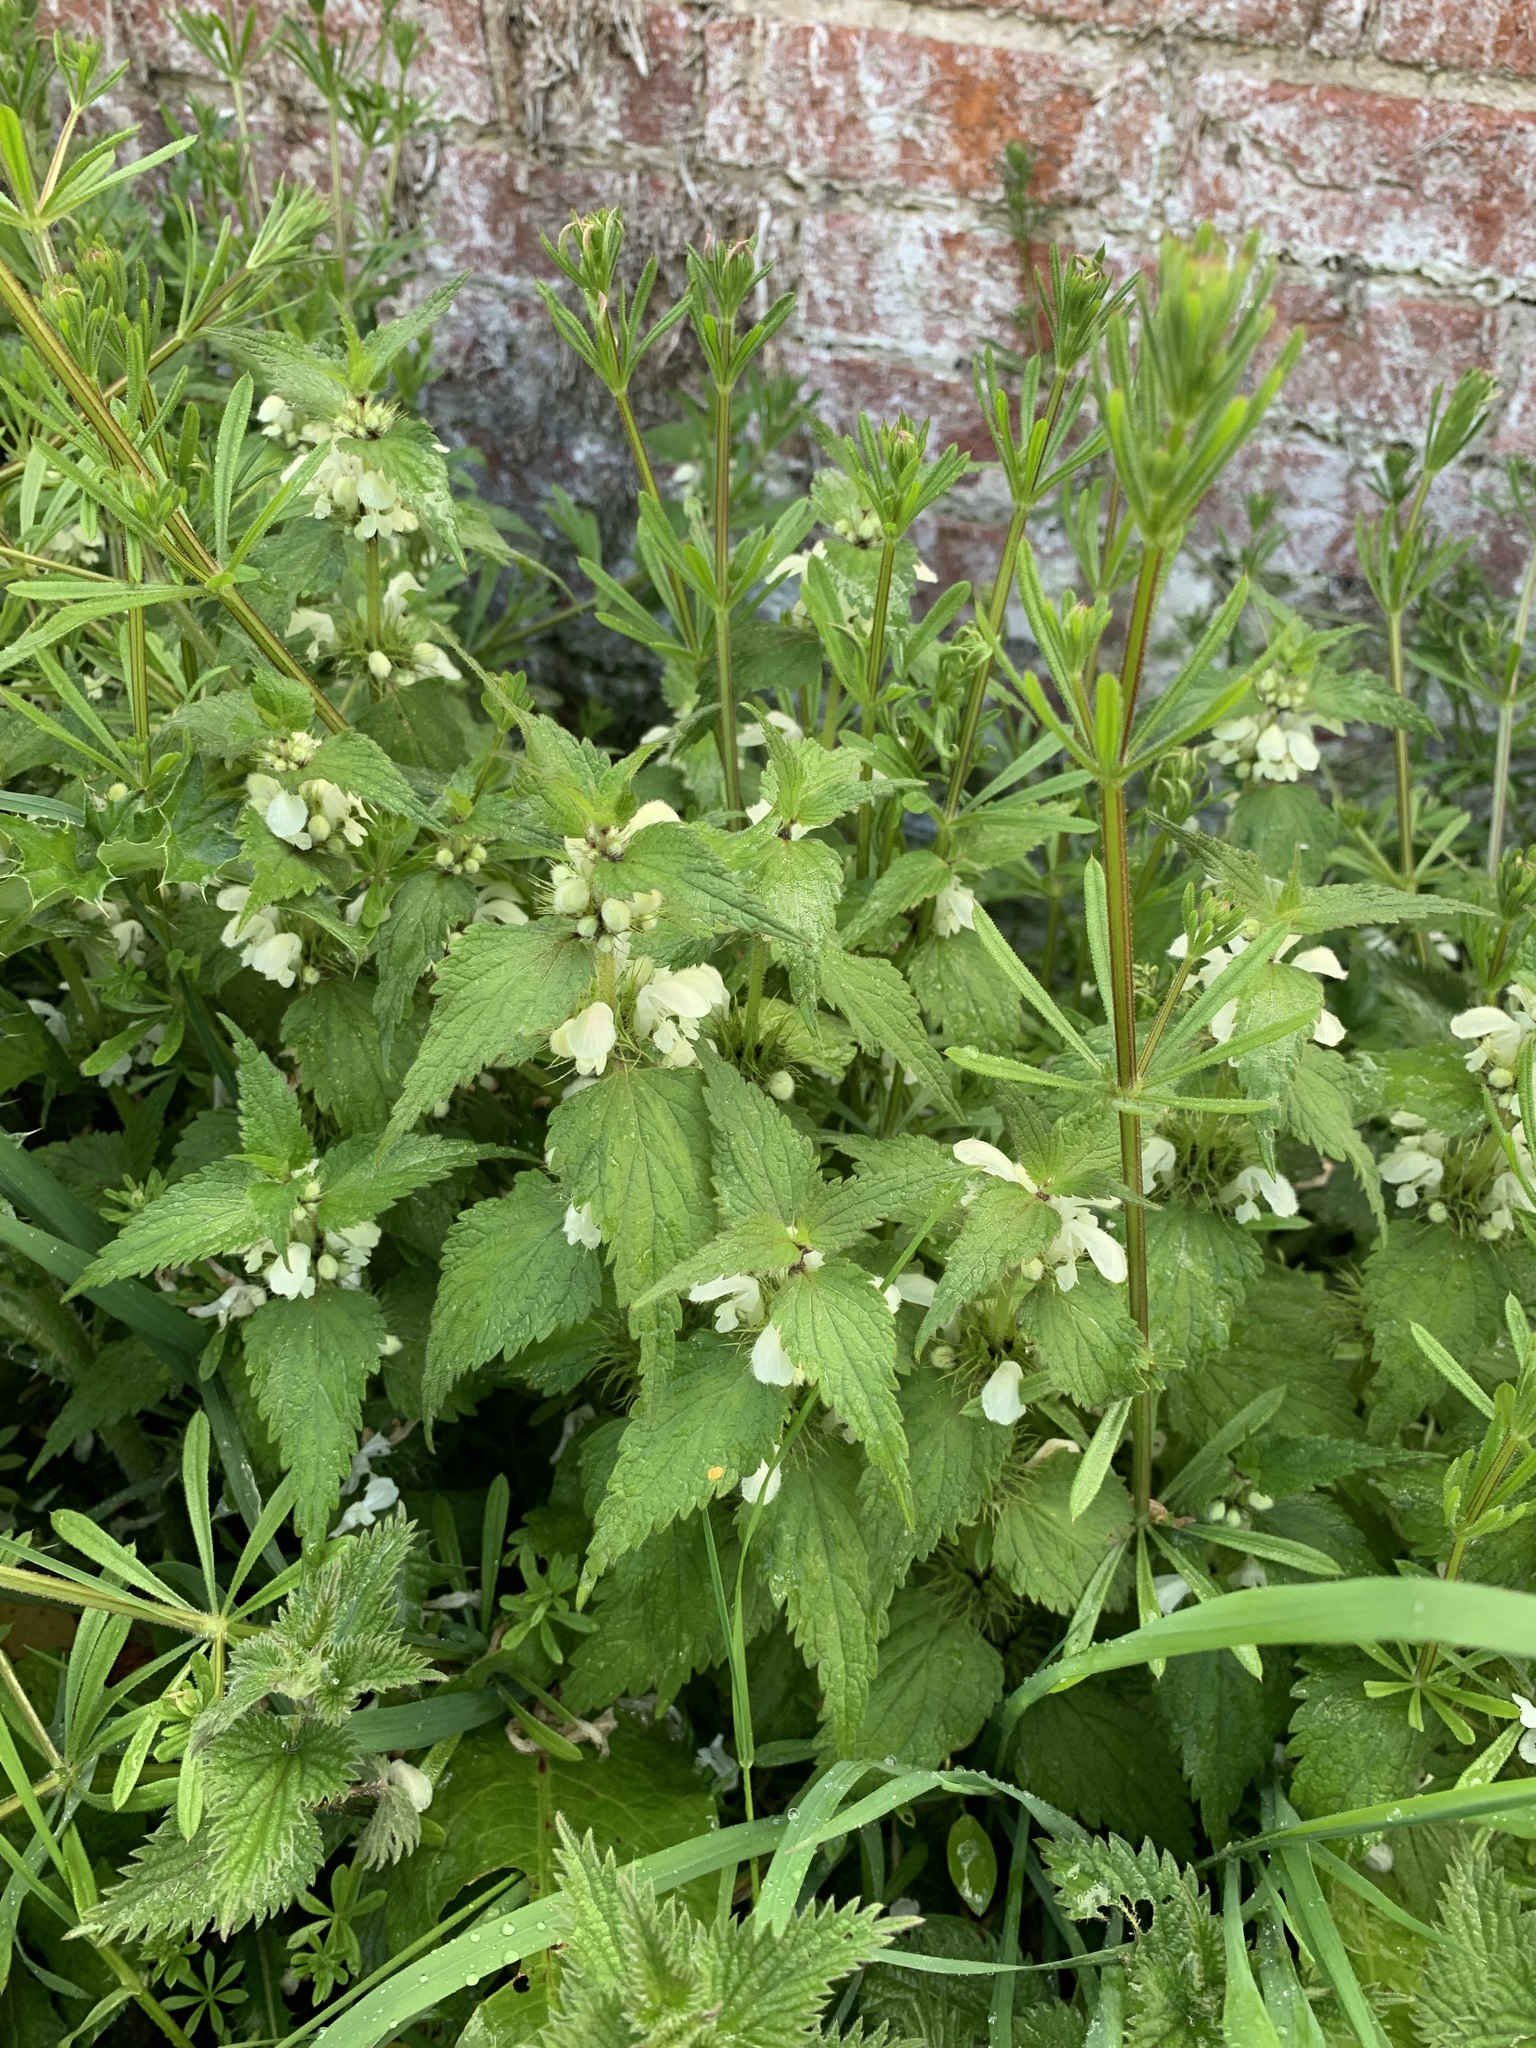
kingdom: Plantae
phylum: Tracheophyta
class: Magnoliopsida
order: Lamiales
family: Lamiaceae
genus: Lamium
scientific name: Lamium album
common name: White dead-nettle
